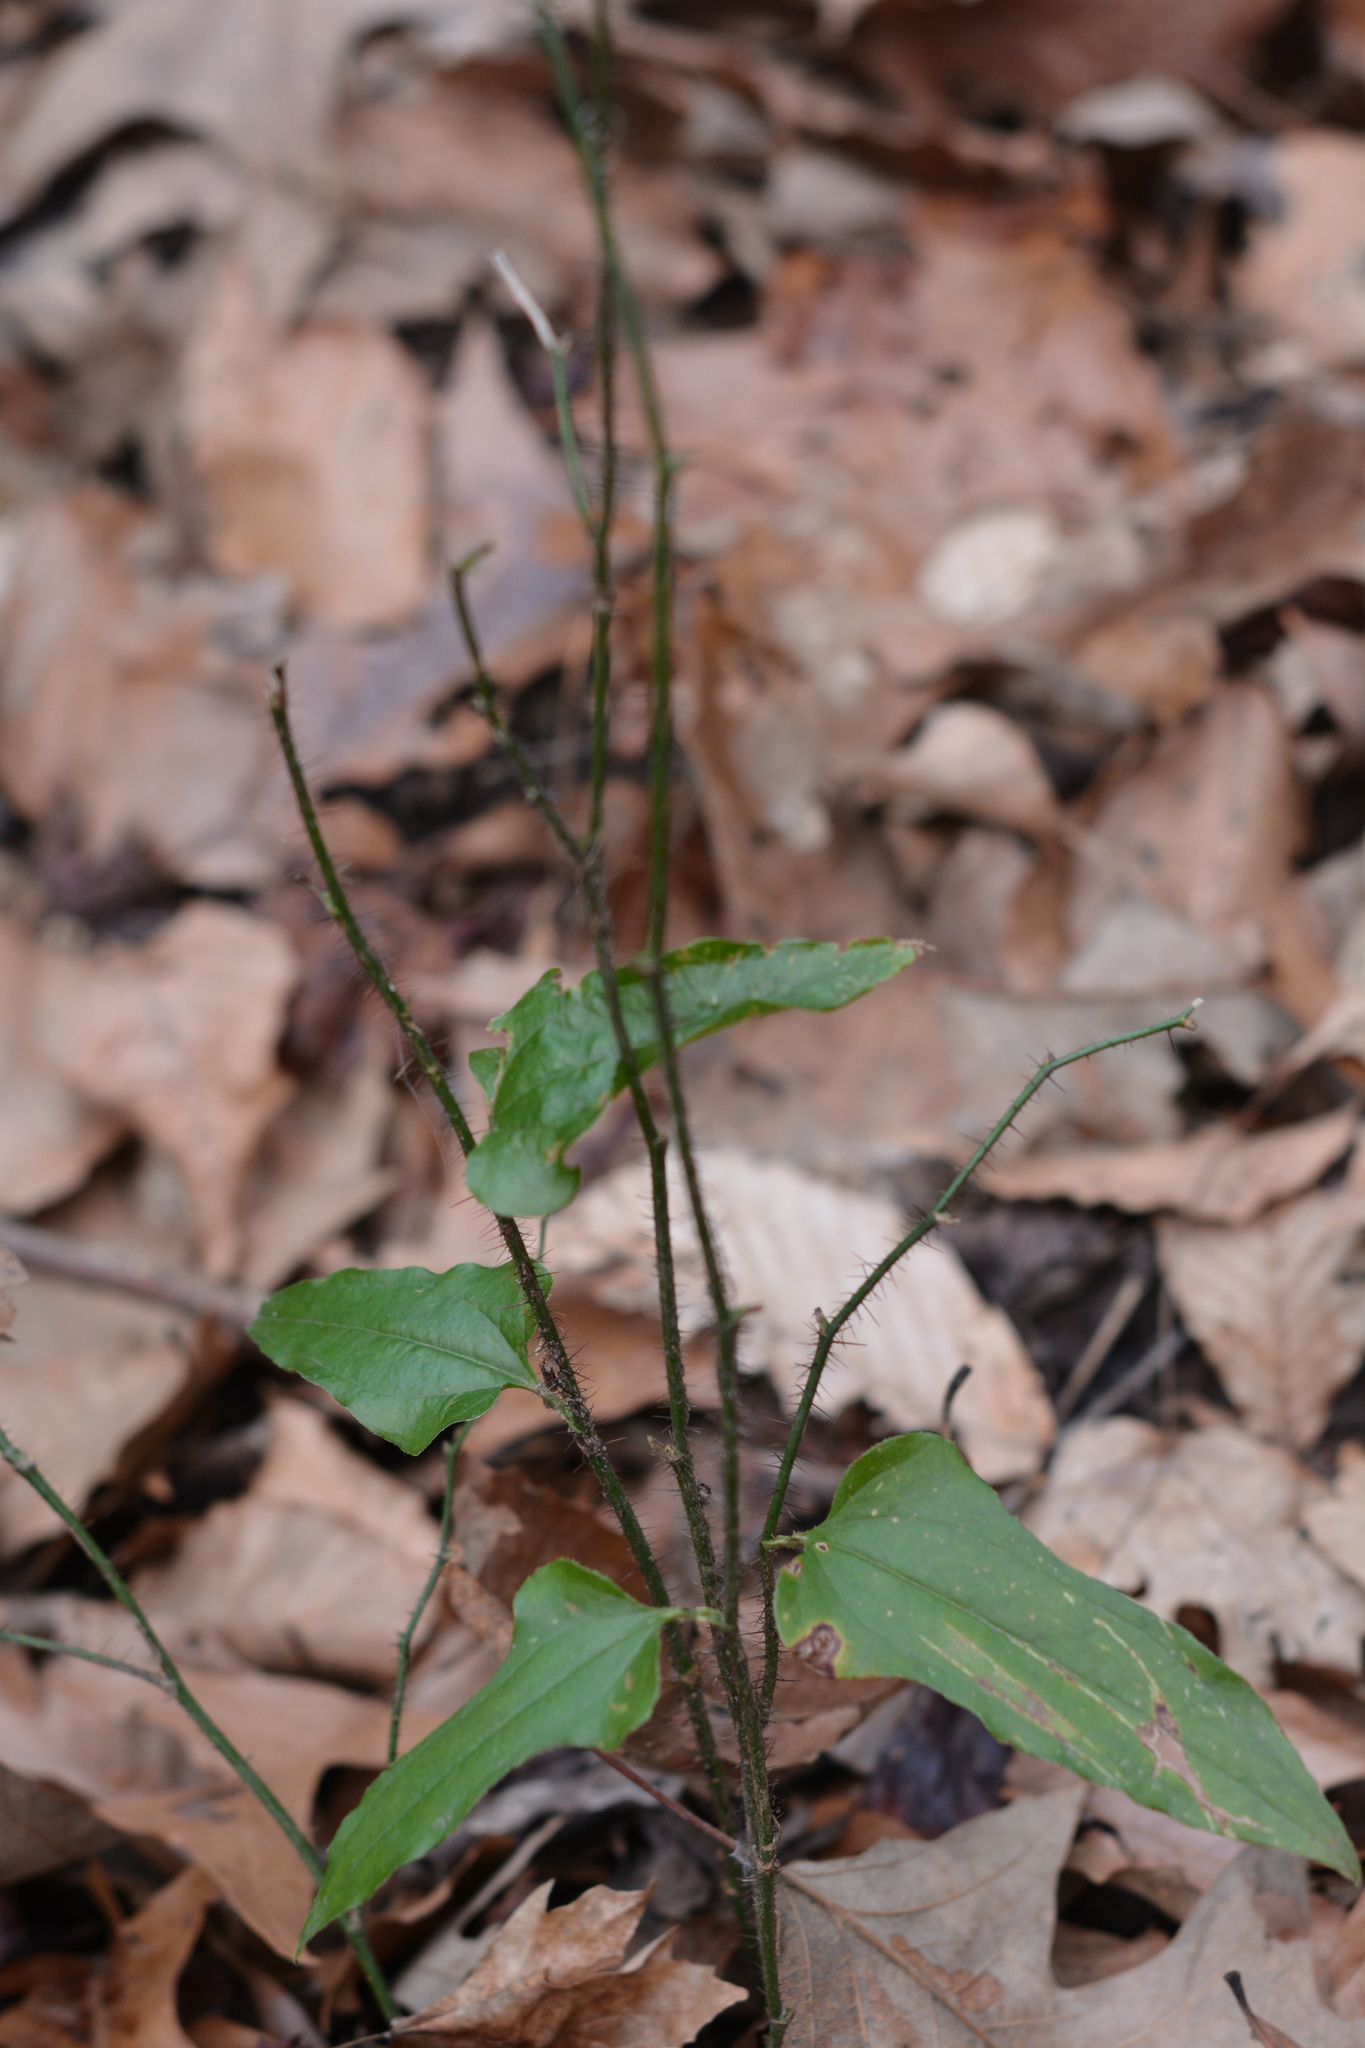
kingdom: Plantae
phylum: Tracheophyta
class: Liliopsida
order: Liliales
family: Smilacaceae
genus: Smilax
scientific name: Smilax tamnoides
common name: Hellfetter
